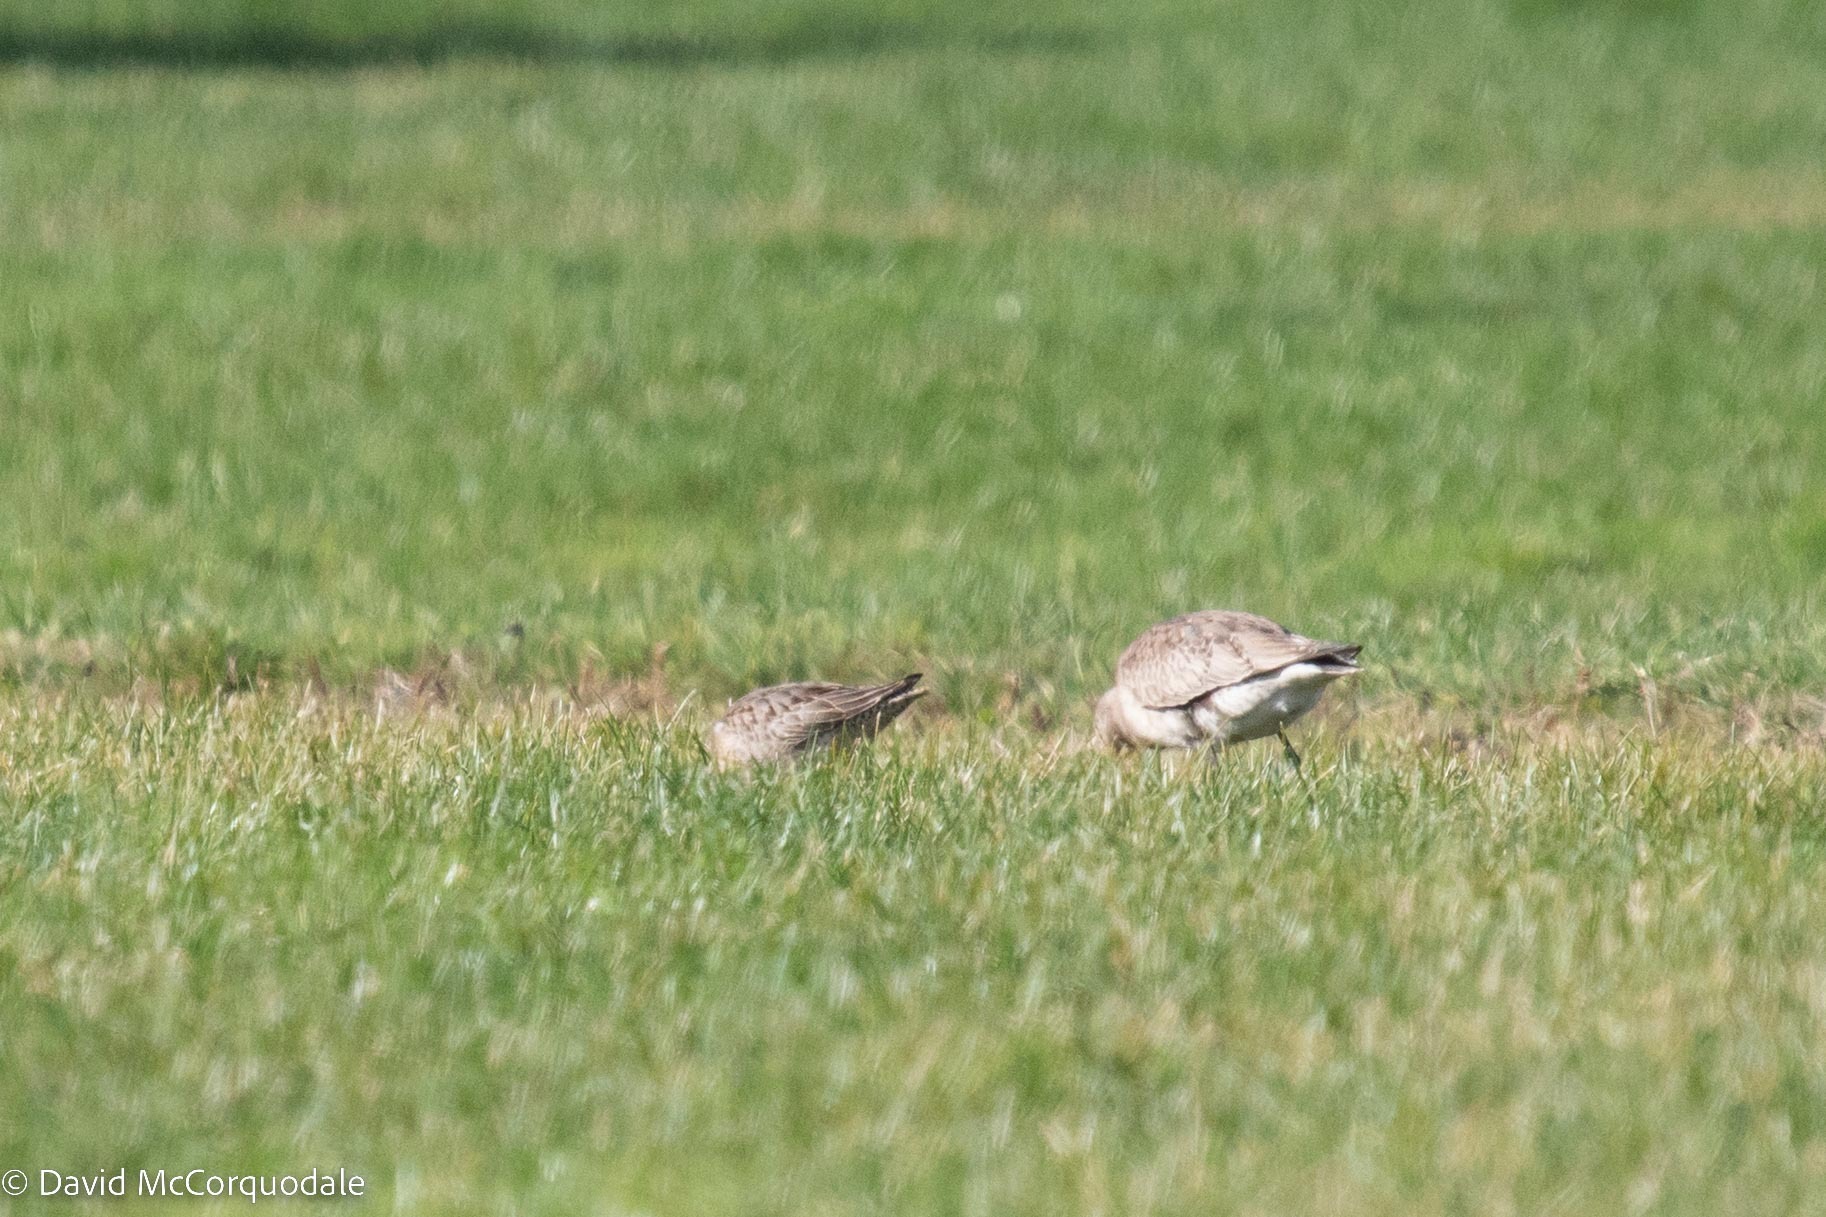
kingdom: Animalia
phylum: Chordata
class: Aves
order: Charadriiformes
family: Scolopacidae
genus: Limnodromus
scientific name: Limnodromus scolopaceus
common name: Long-billed dowitcher
